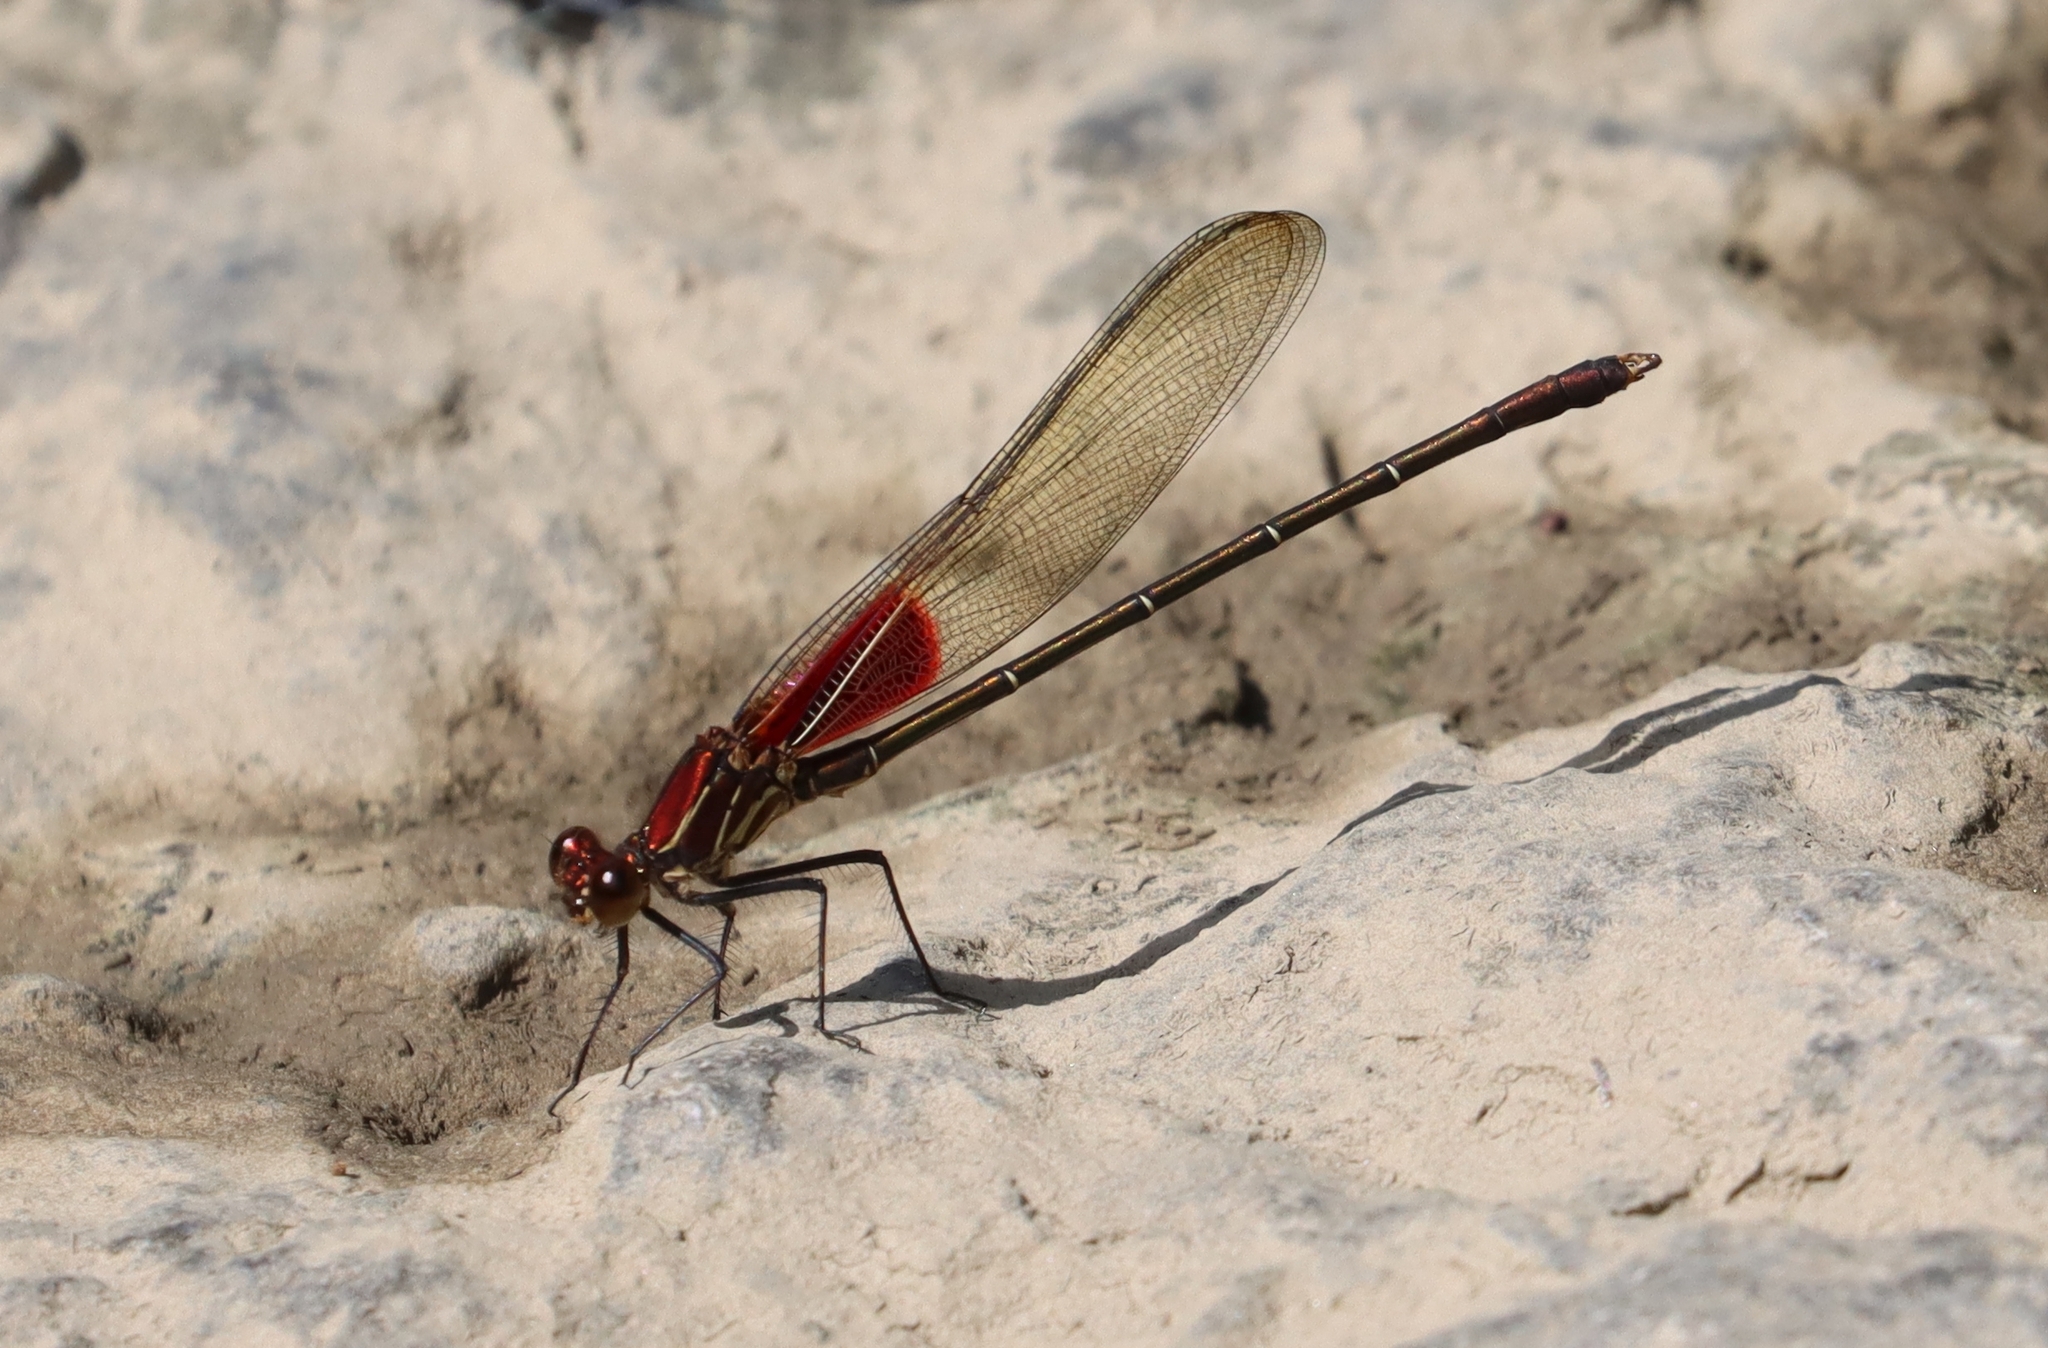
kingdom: Animalia
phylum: Arthropoda
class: Insecta
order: Odonata
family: Calopterygidae
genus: Hetaerina
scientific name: Hetaerina americana
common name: American rubyspot
